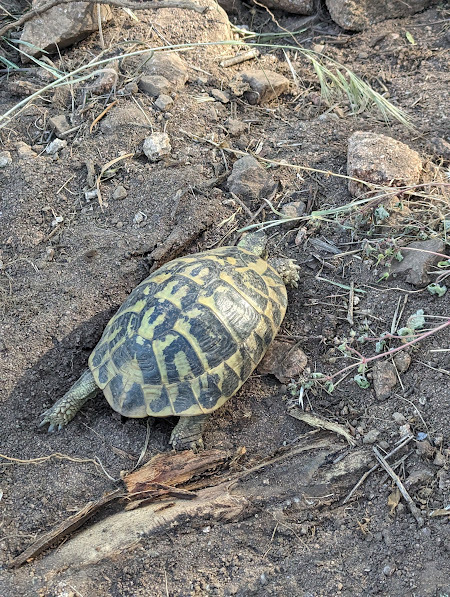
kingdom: Animalia
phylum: Chordata
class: Testudines
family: Testudinidae
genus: Testudo
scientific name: Testudo hermanni
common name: Hermann's tortoise
